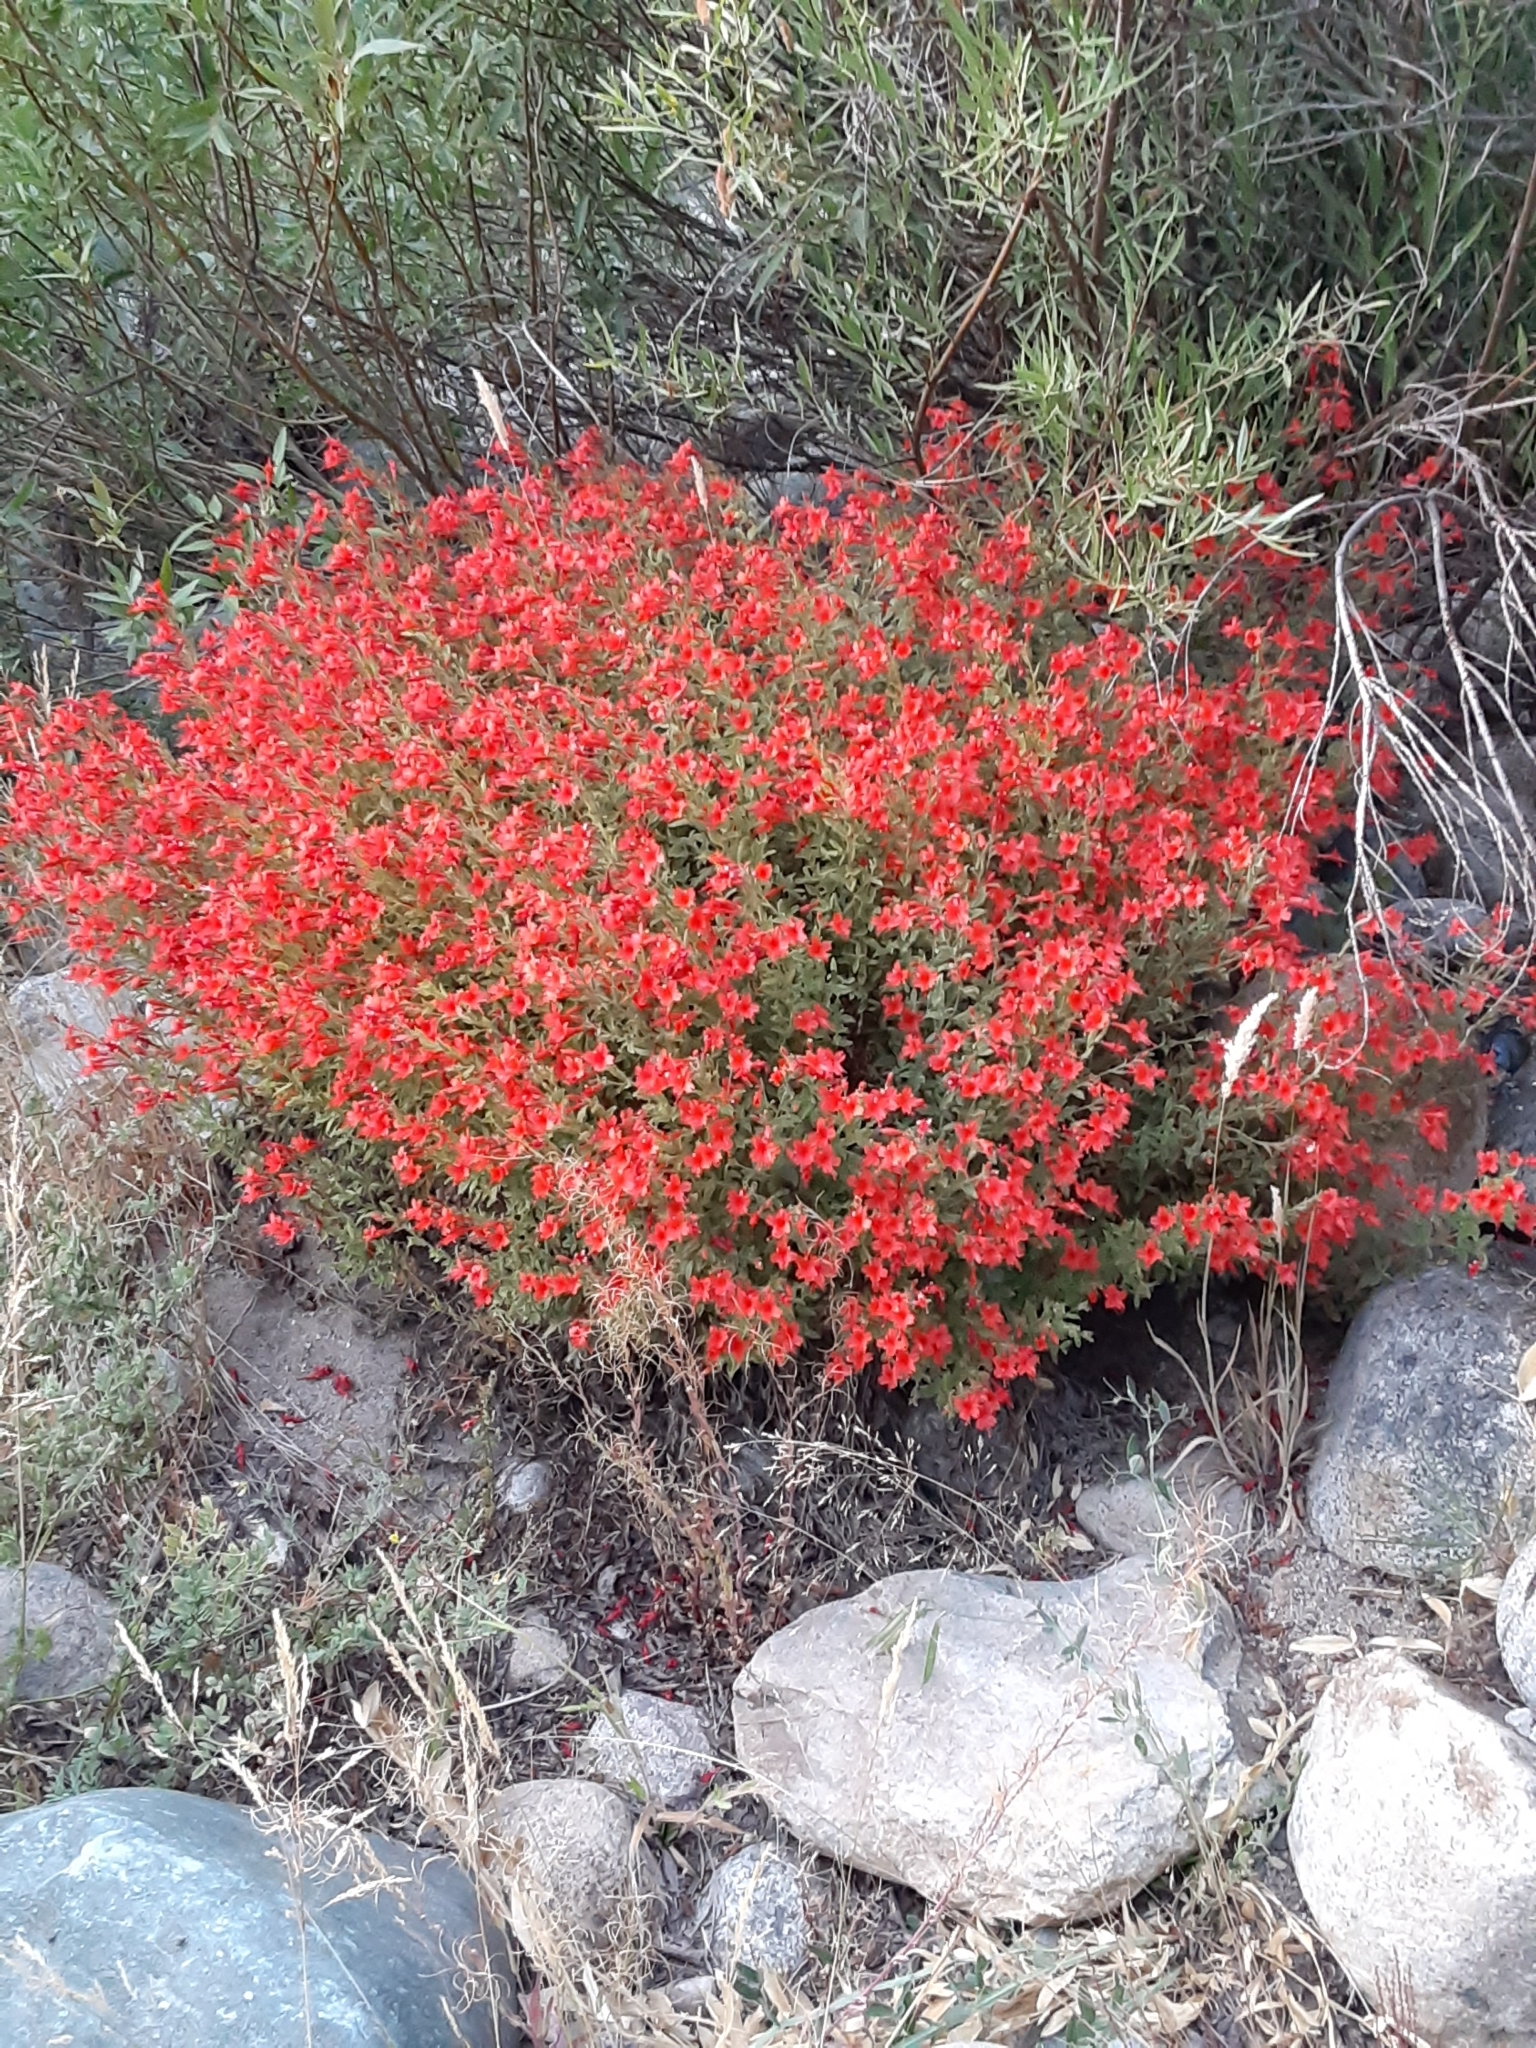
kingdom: Plantae
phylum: Tracheophyta
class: Magnoliopsida
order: Myrtales
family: Onagraceae
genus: Epilobium
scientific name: Epilobium canum
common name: California-fuchsia
